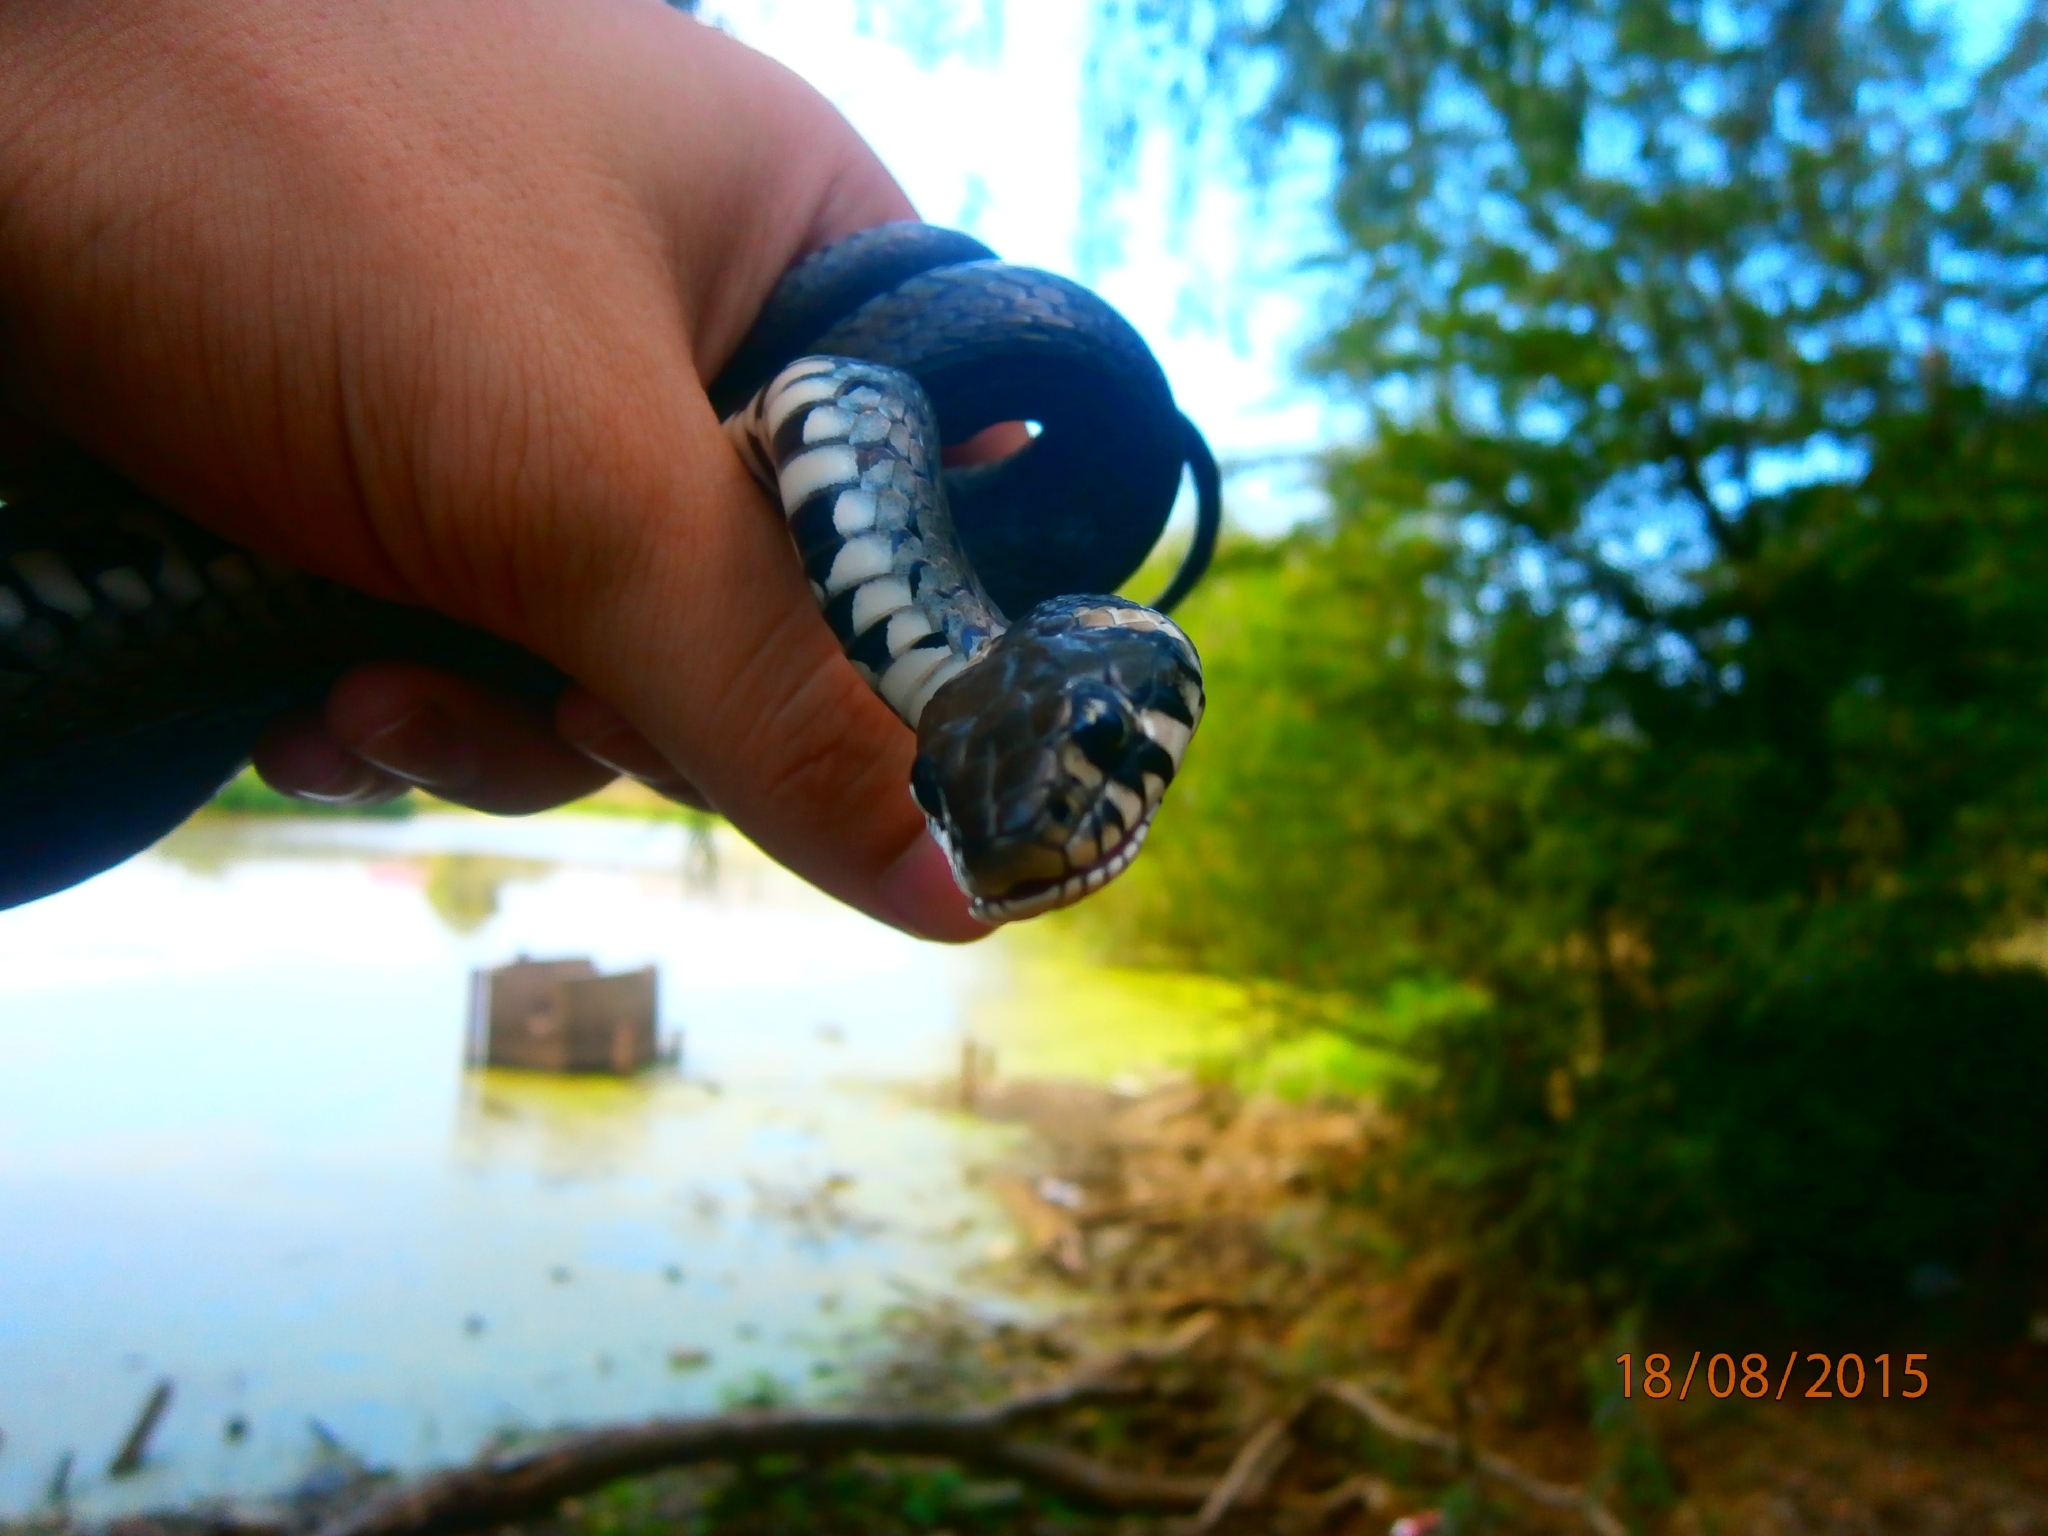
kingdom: Animalia
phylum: Chordata
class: Squamata
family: Colubridae
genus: Natrix
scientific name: Natrix natrix
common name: Grass snake
